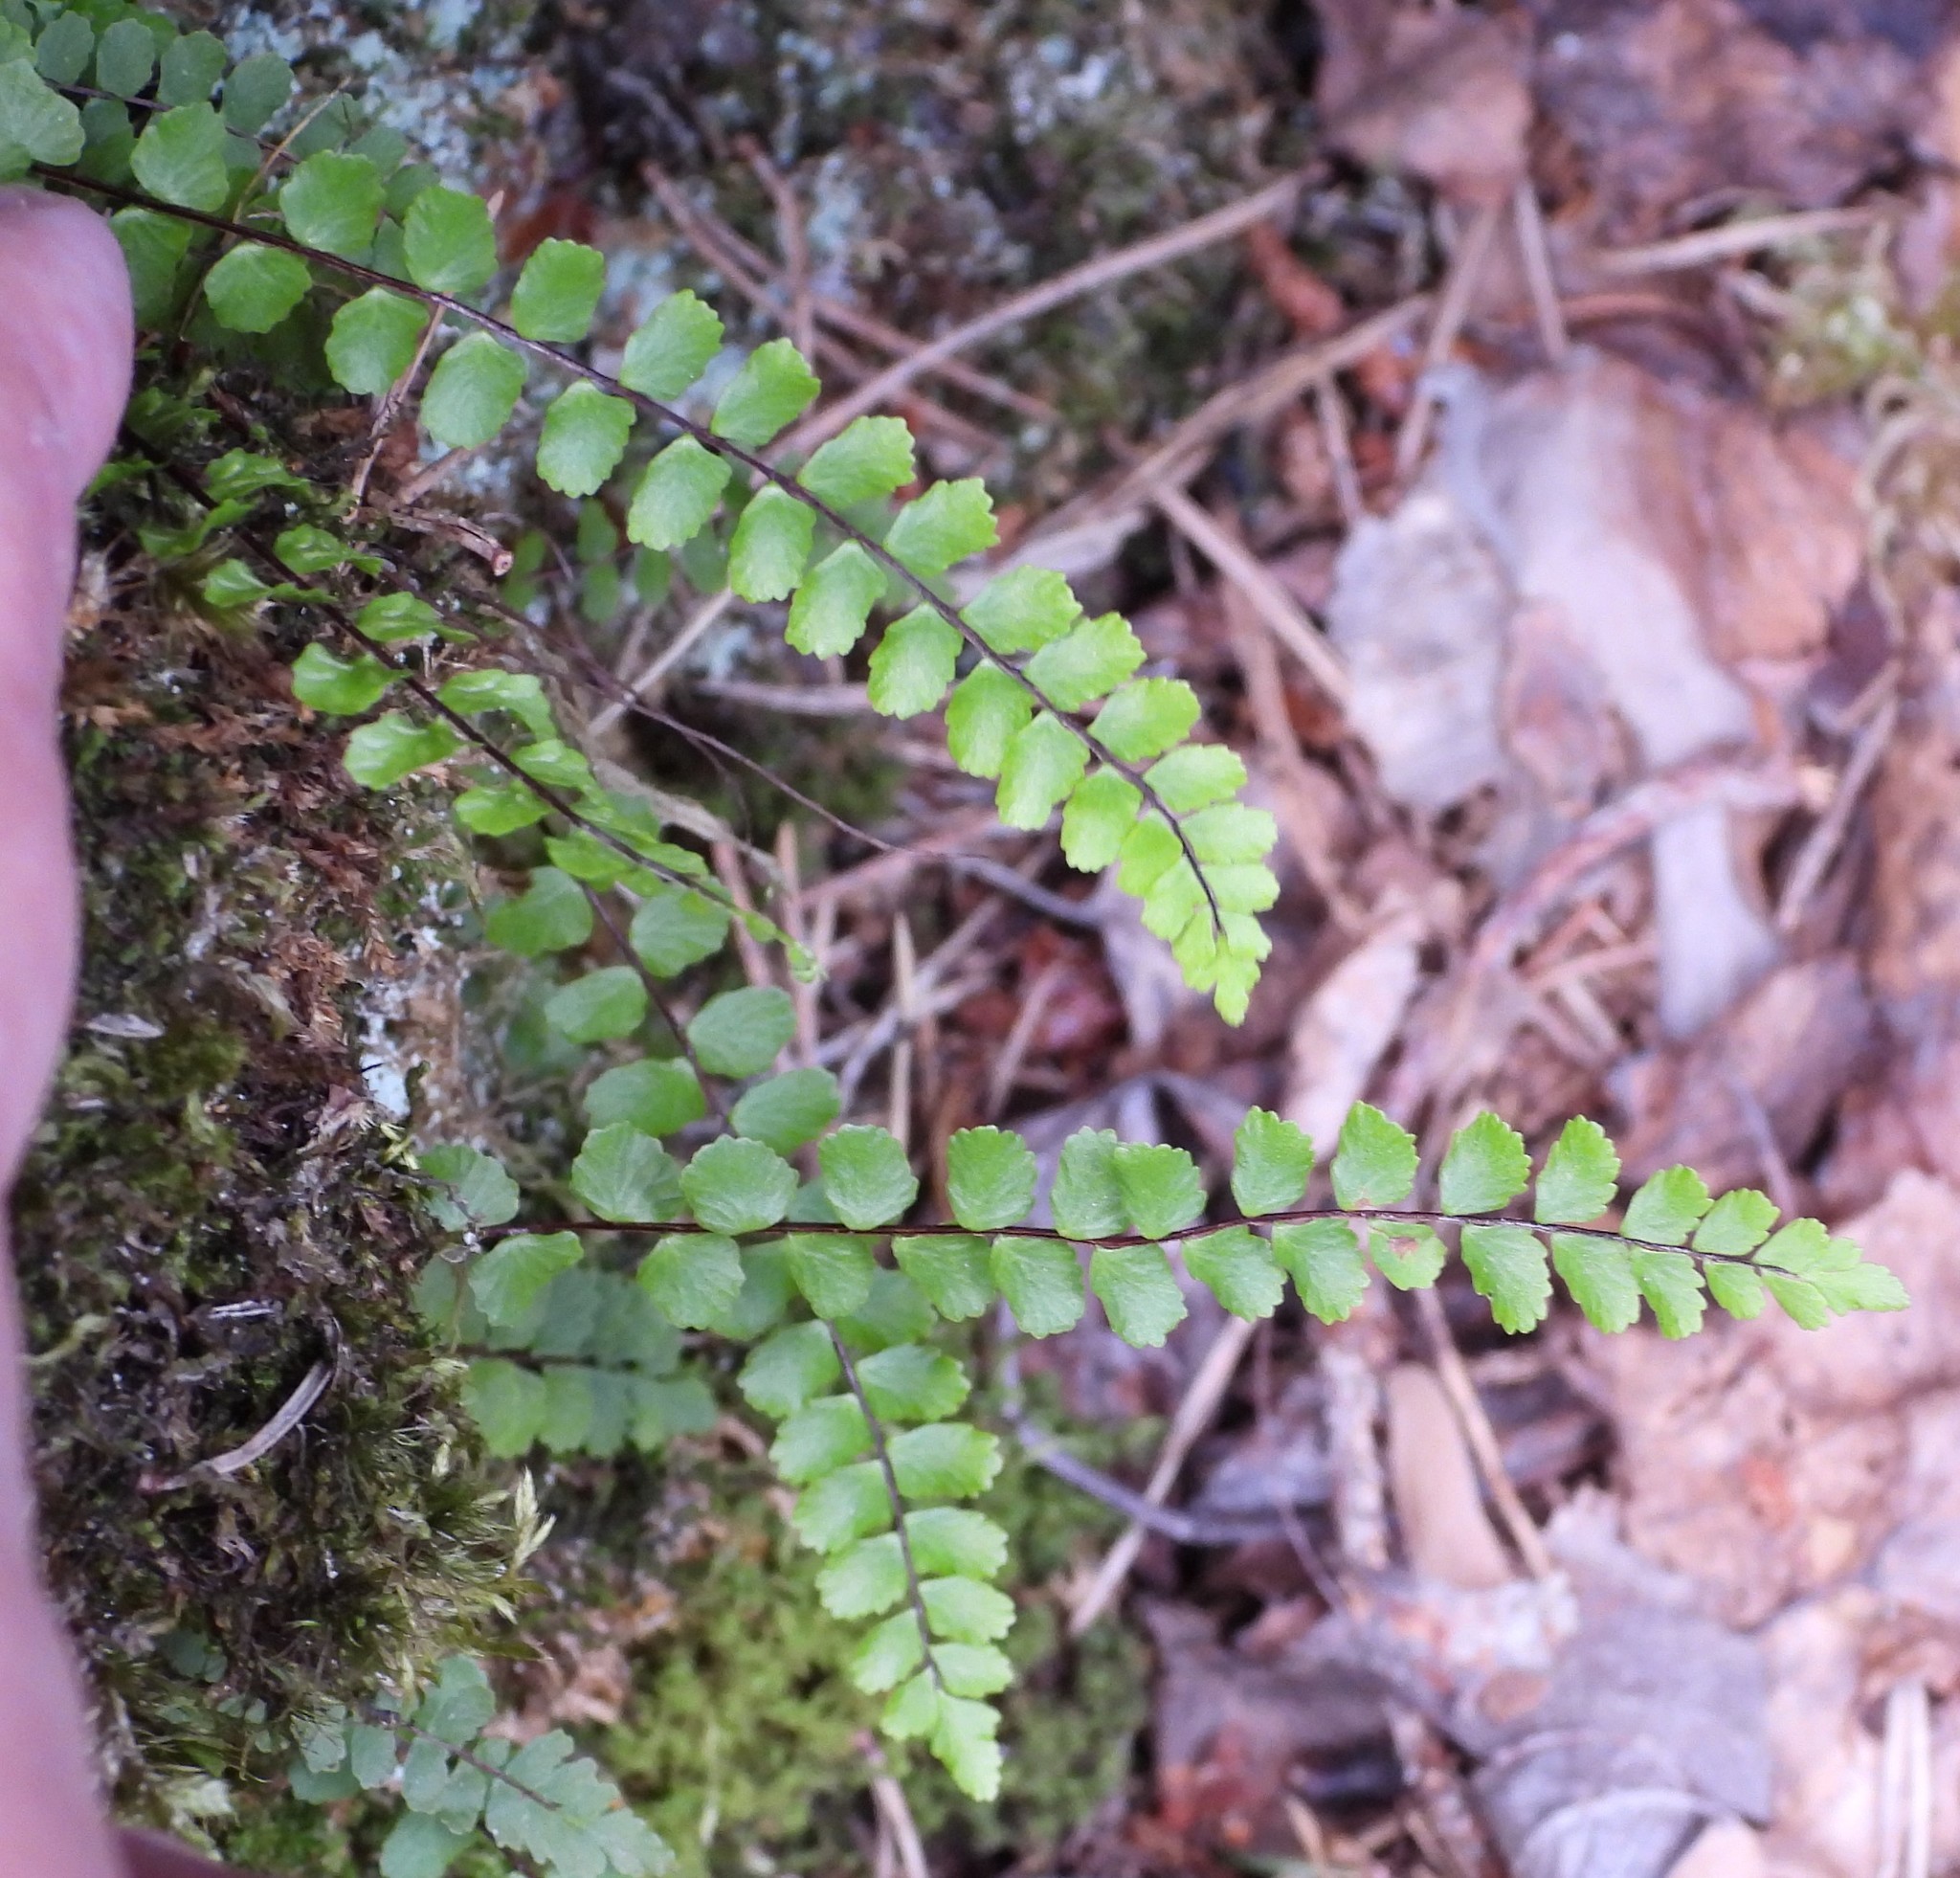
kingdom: Plantae
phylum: Tracheophyta
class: Polypodiopsida
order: Polypodiales
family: Aspleniaceae
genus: Asplenium
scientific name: Asplenium trichomanes
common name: Maidenhair spleenwort
